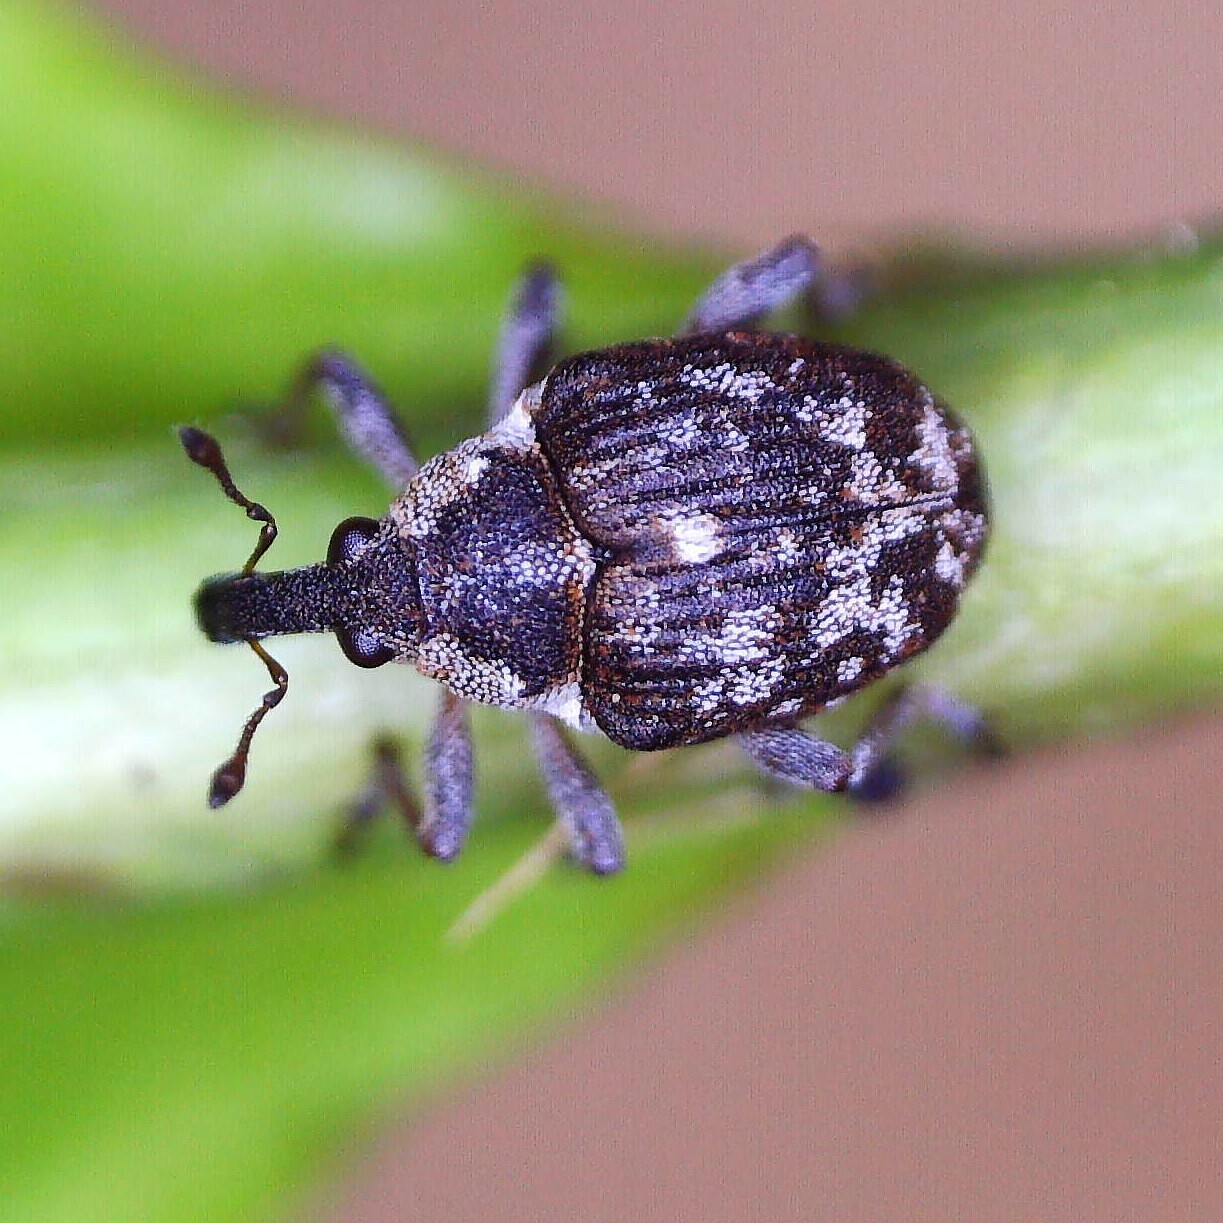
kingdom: Animalia
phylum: Arthropoda
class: Insecta
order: Coleoptera
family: Curculionidae
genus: Phytobius
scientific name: Phytobius waltoni
